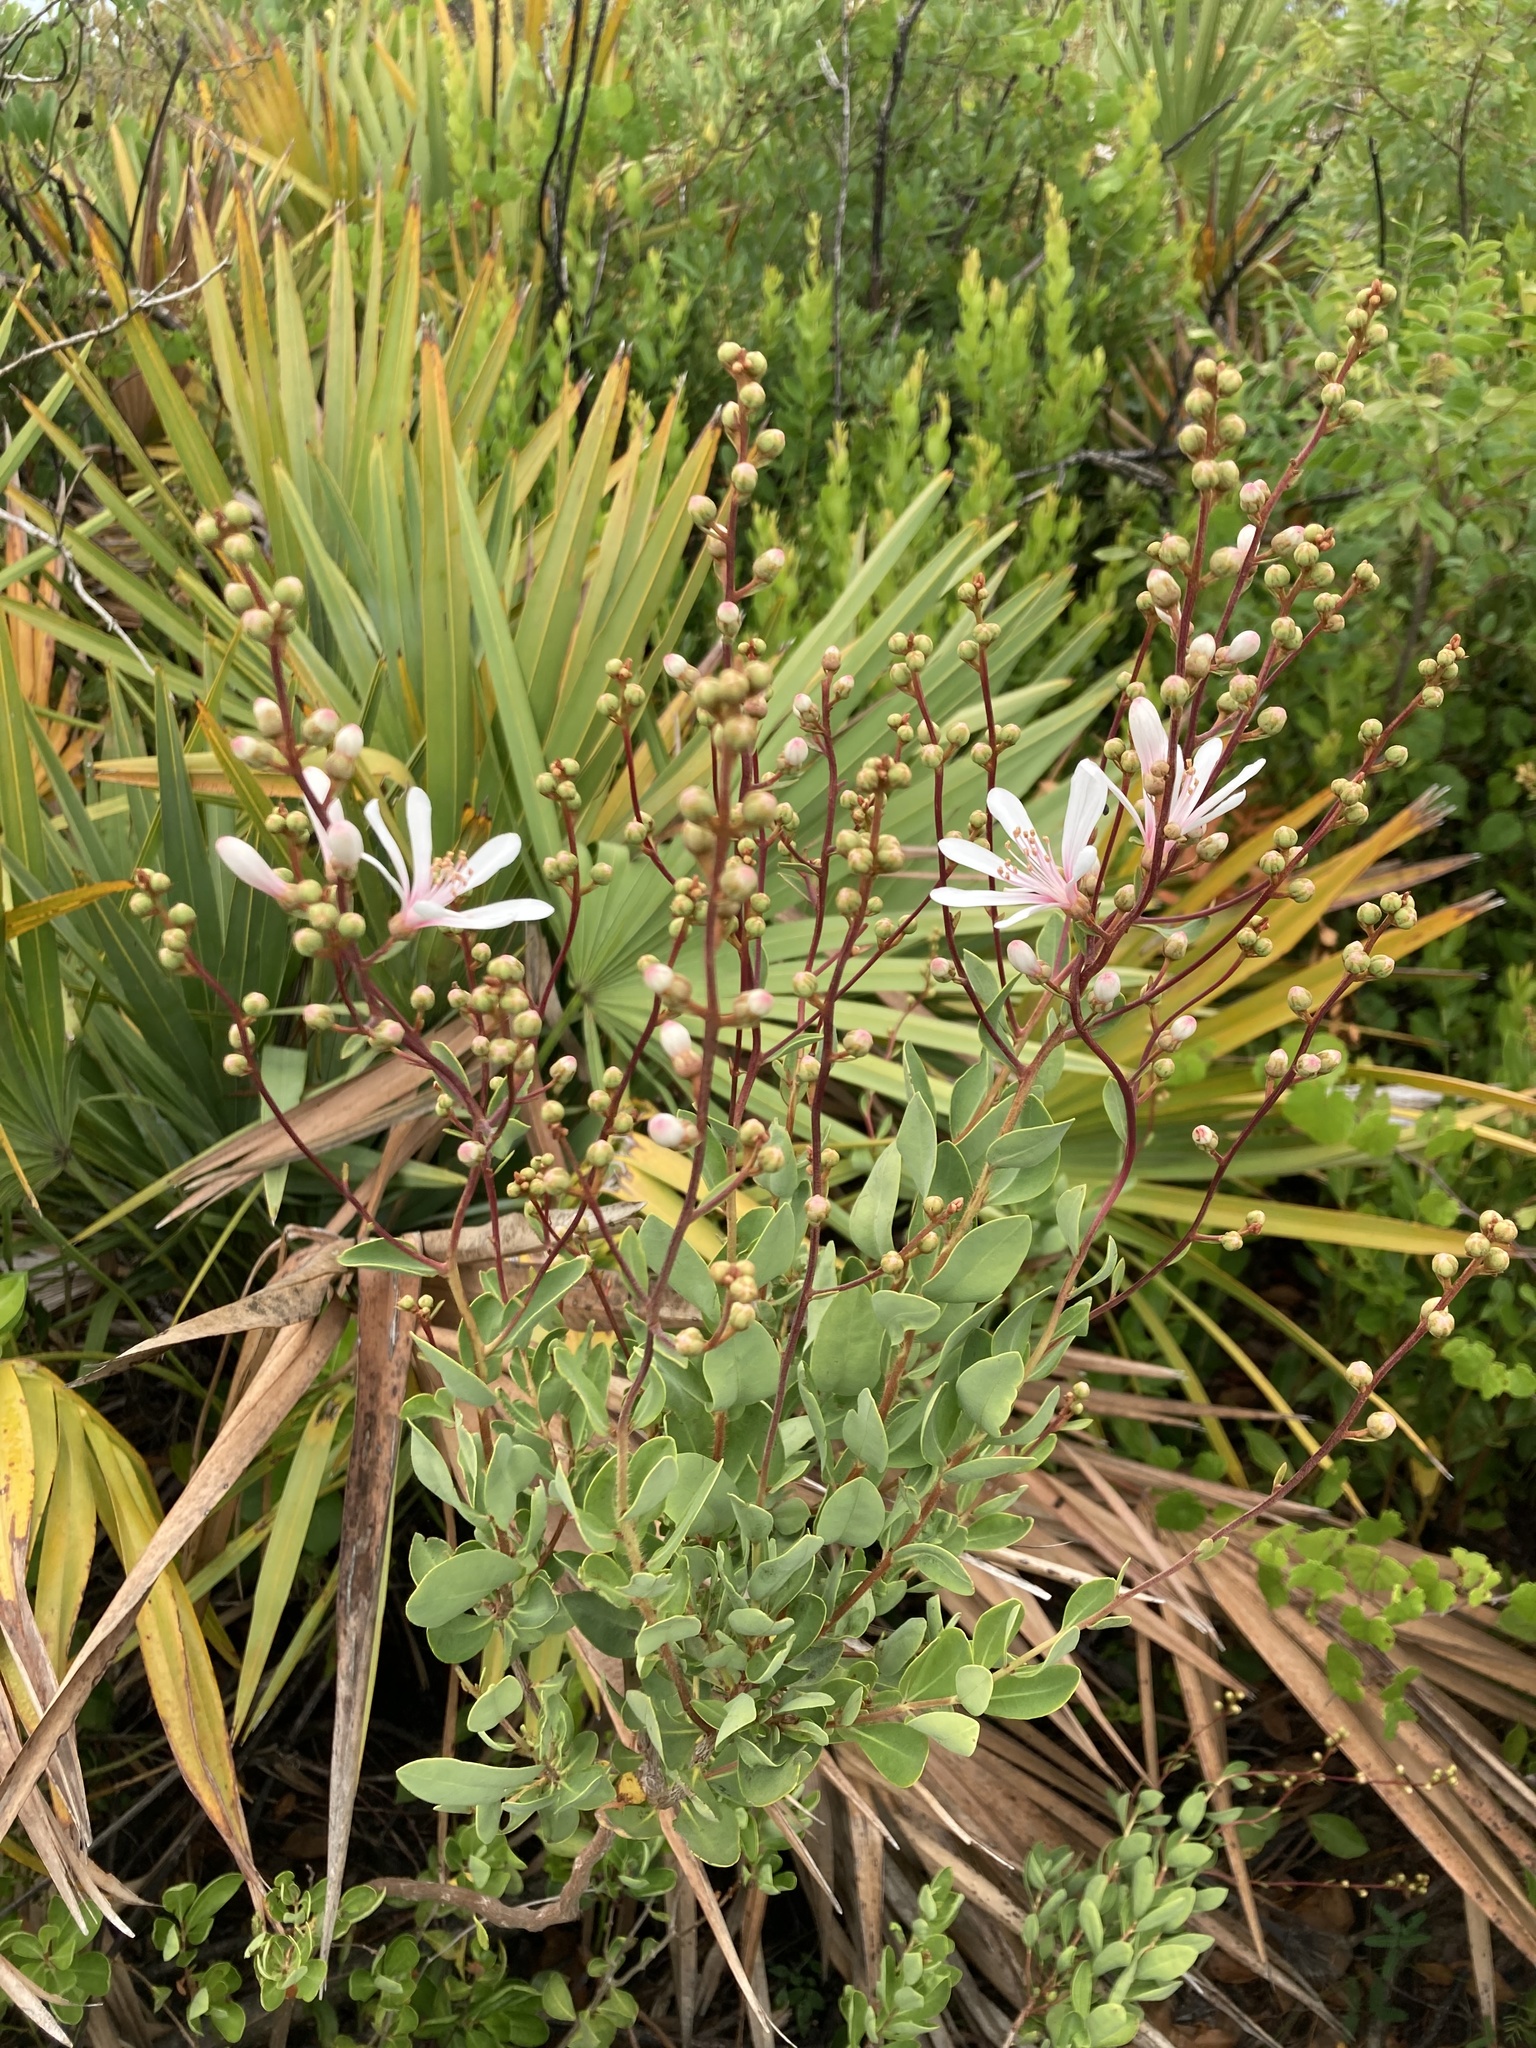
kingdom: Plantae
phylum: Tracheophyta
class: Magnoliopsida
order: Ericales
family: Ericaceae
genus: Bejaria
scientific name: Bejaria racemosa
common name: Tarflower
